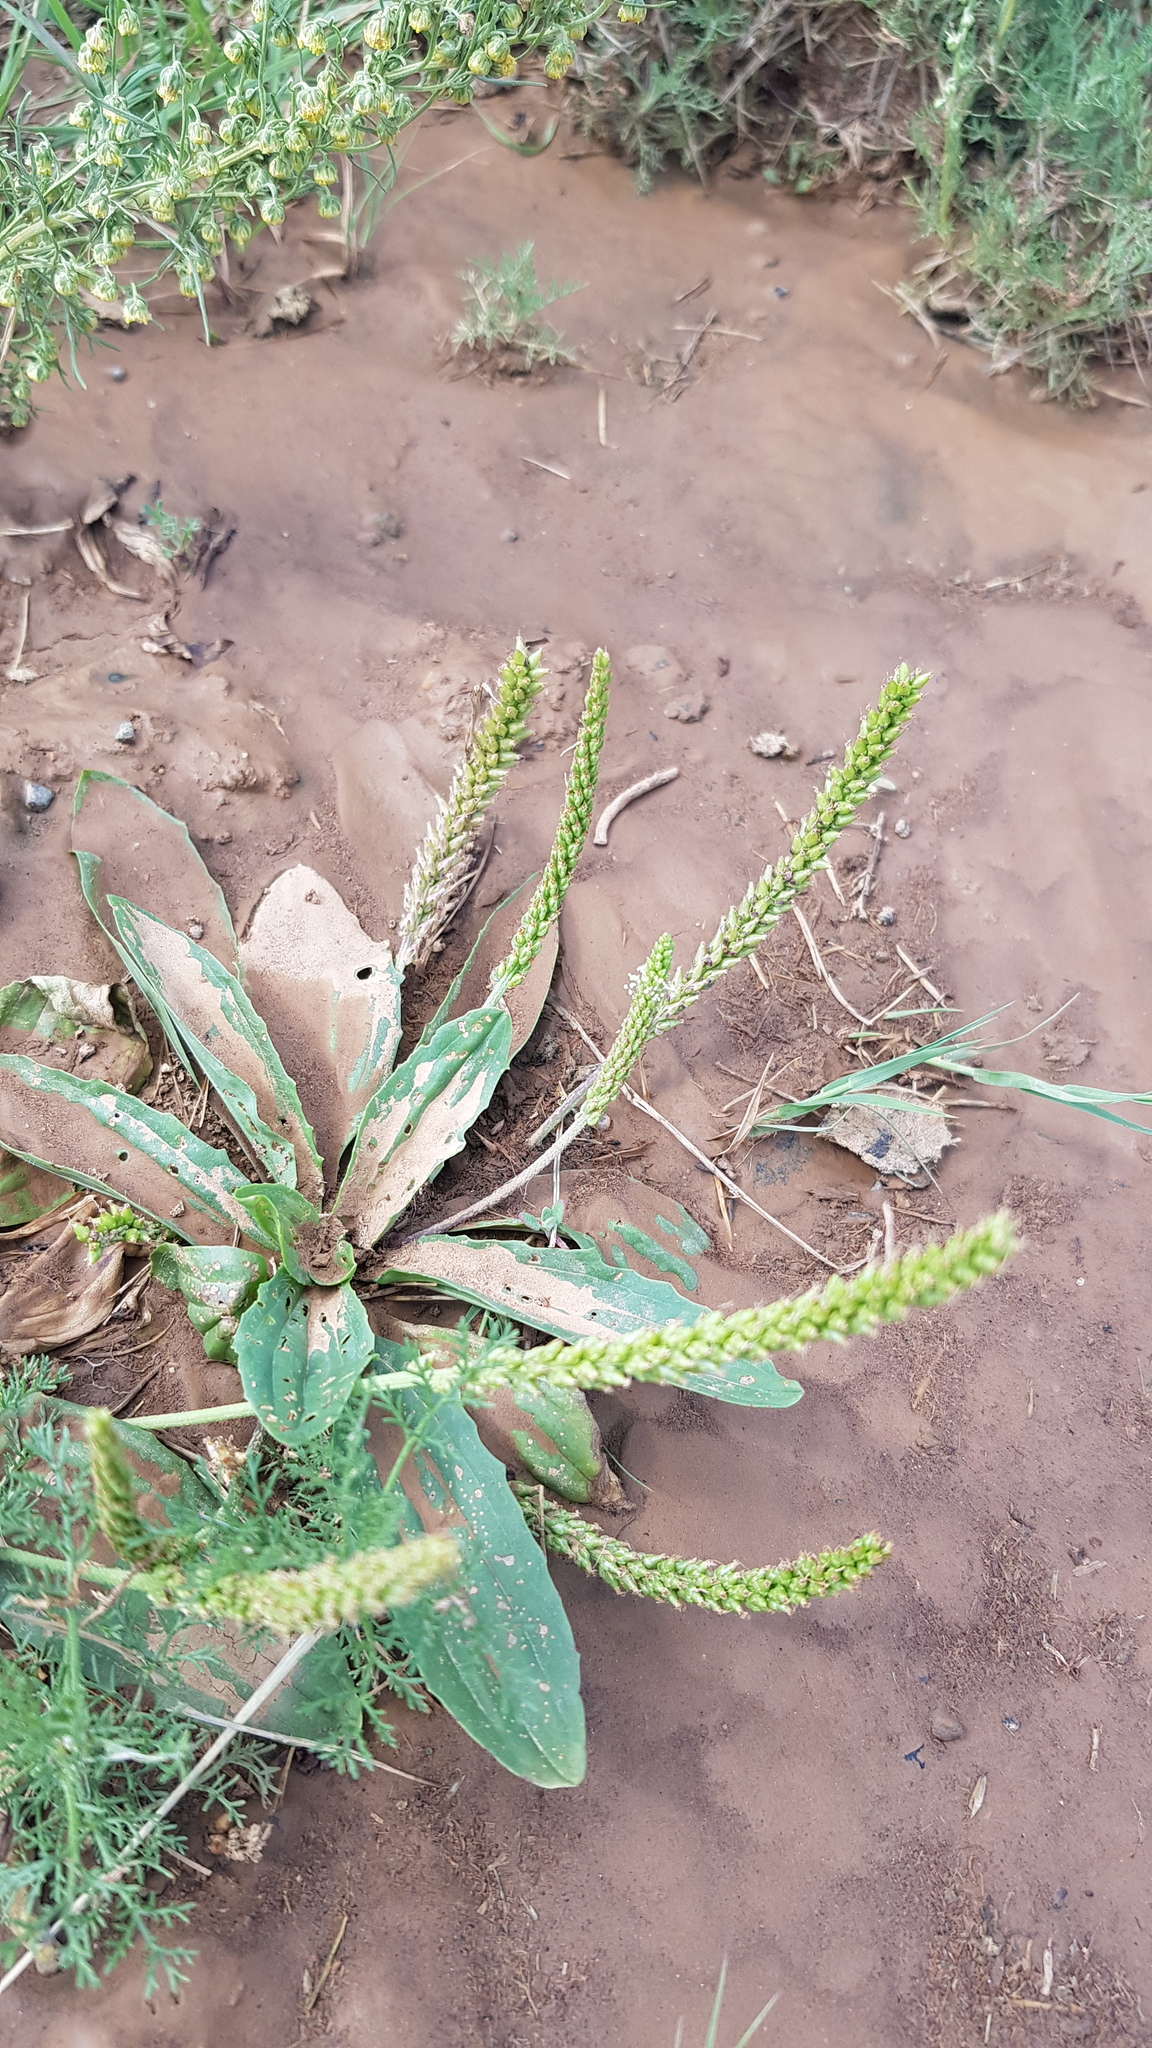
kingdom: Plantae
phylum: Tracheophyta
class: Magnoliopsida
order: Lamiales
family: Plantaginaceae
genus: Plantago
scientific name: Plantago depressa
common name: Depressed plantain
